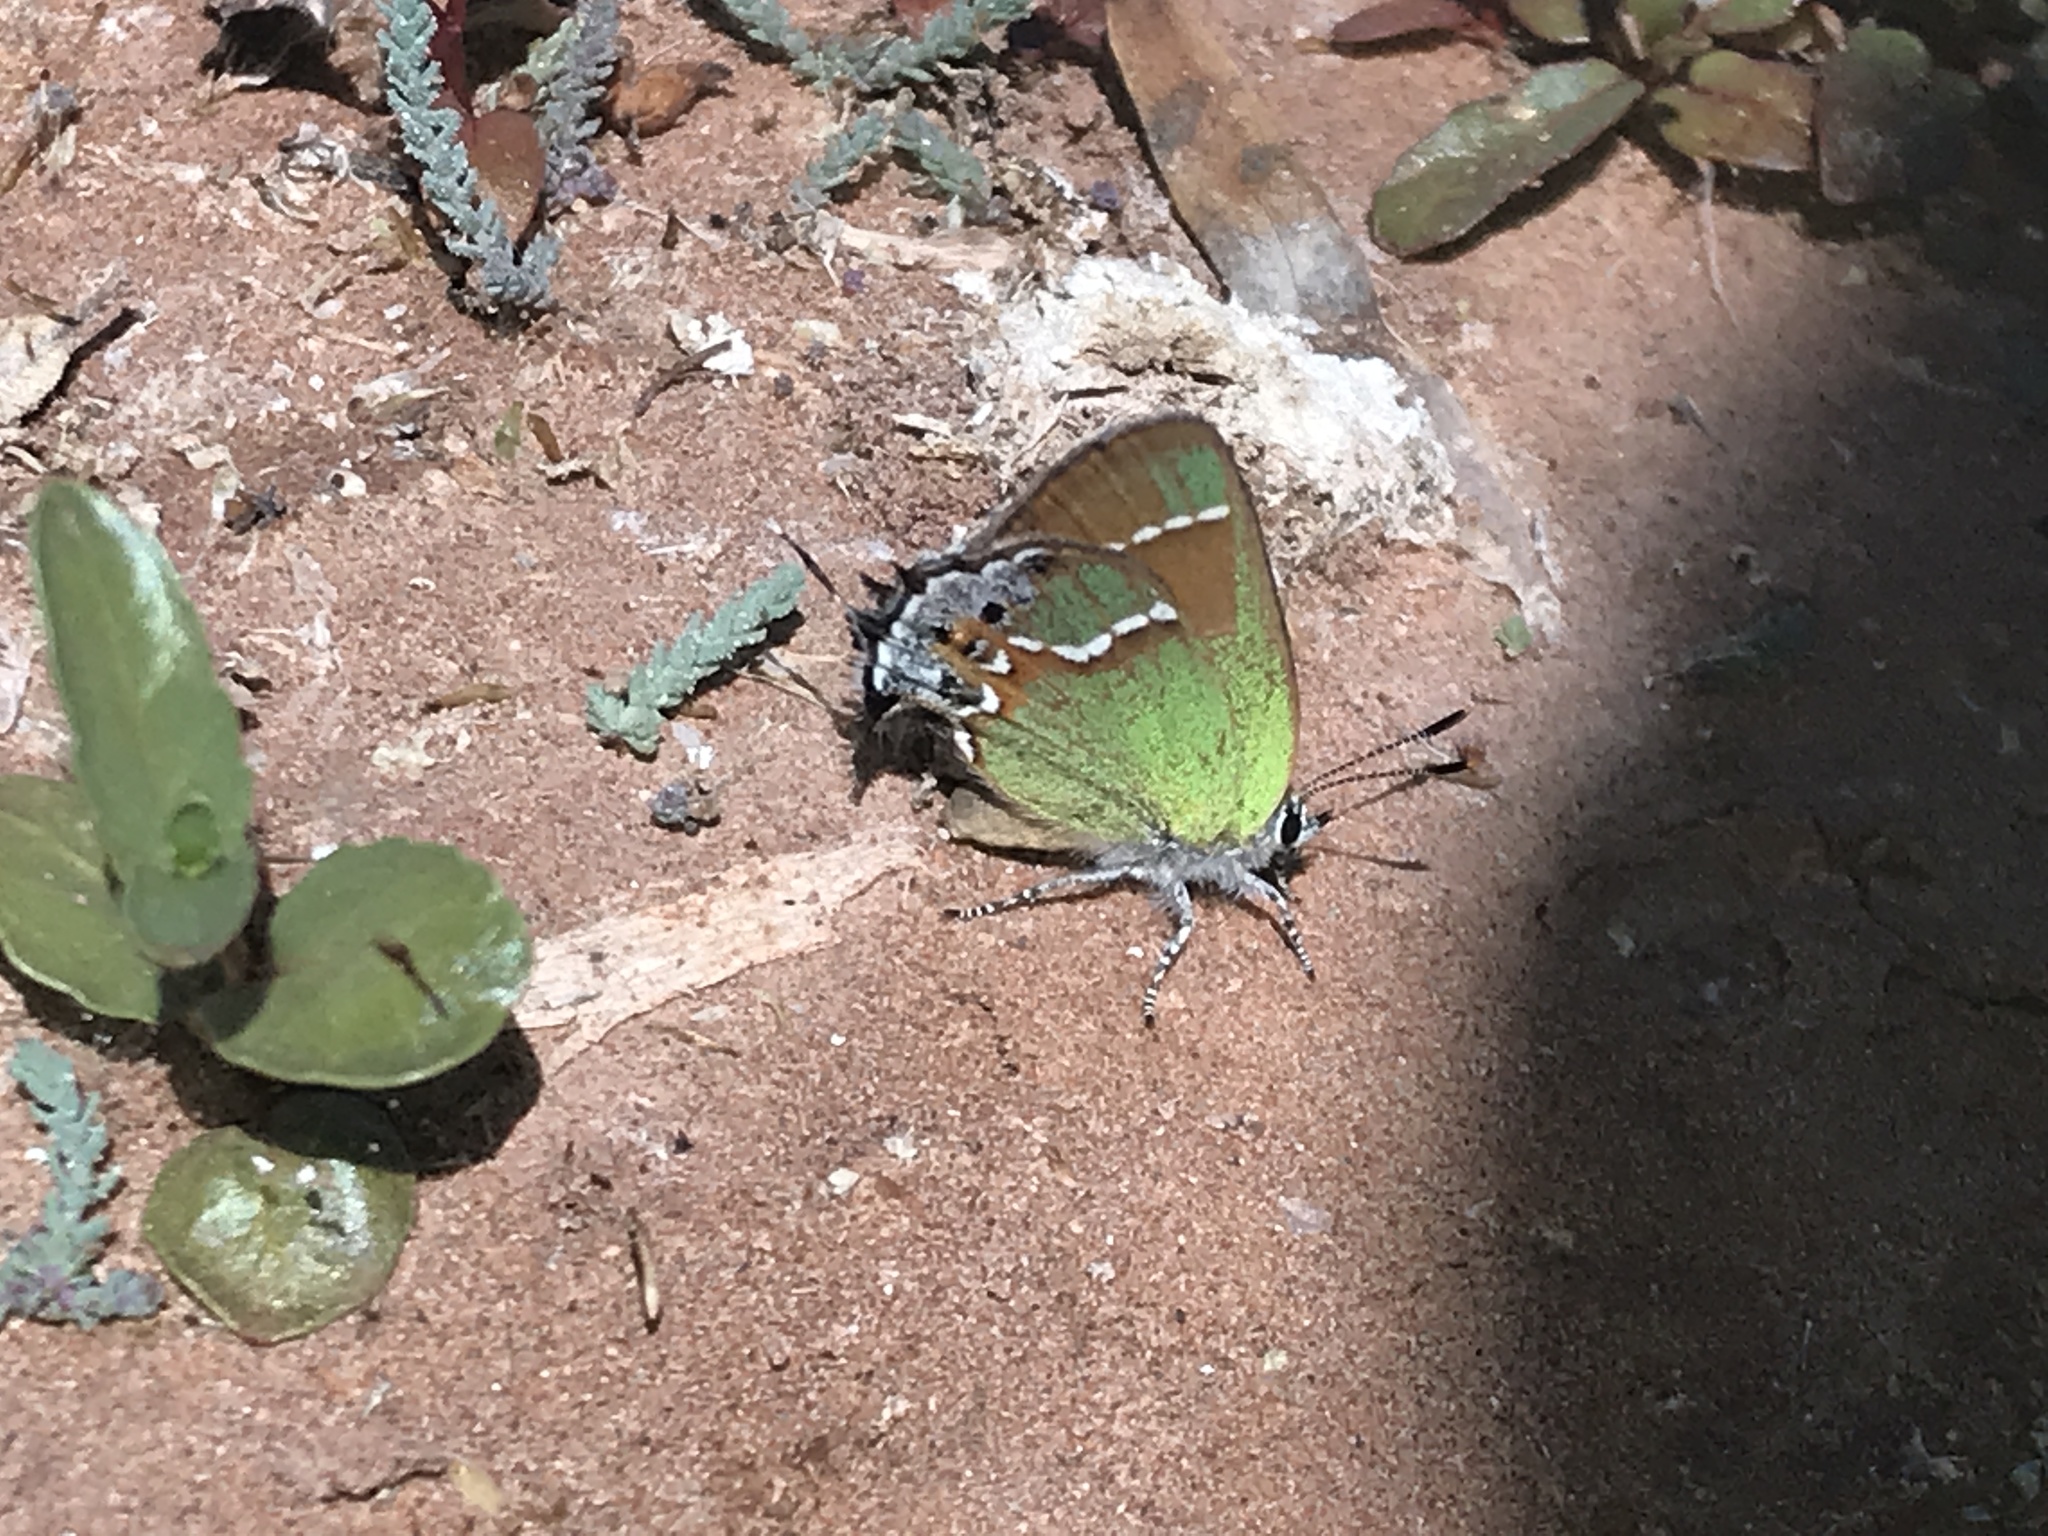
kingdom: Animalia
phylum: Arthropoda
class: Insecta
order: Lepidoptera
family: Lycaenidae
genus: Mitoura
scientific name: Mitoura siva
